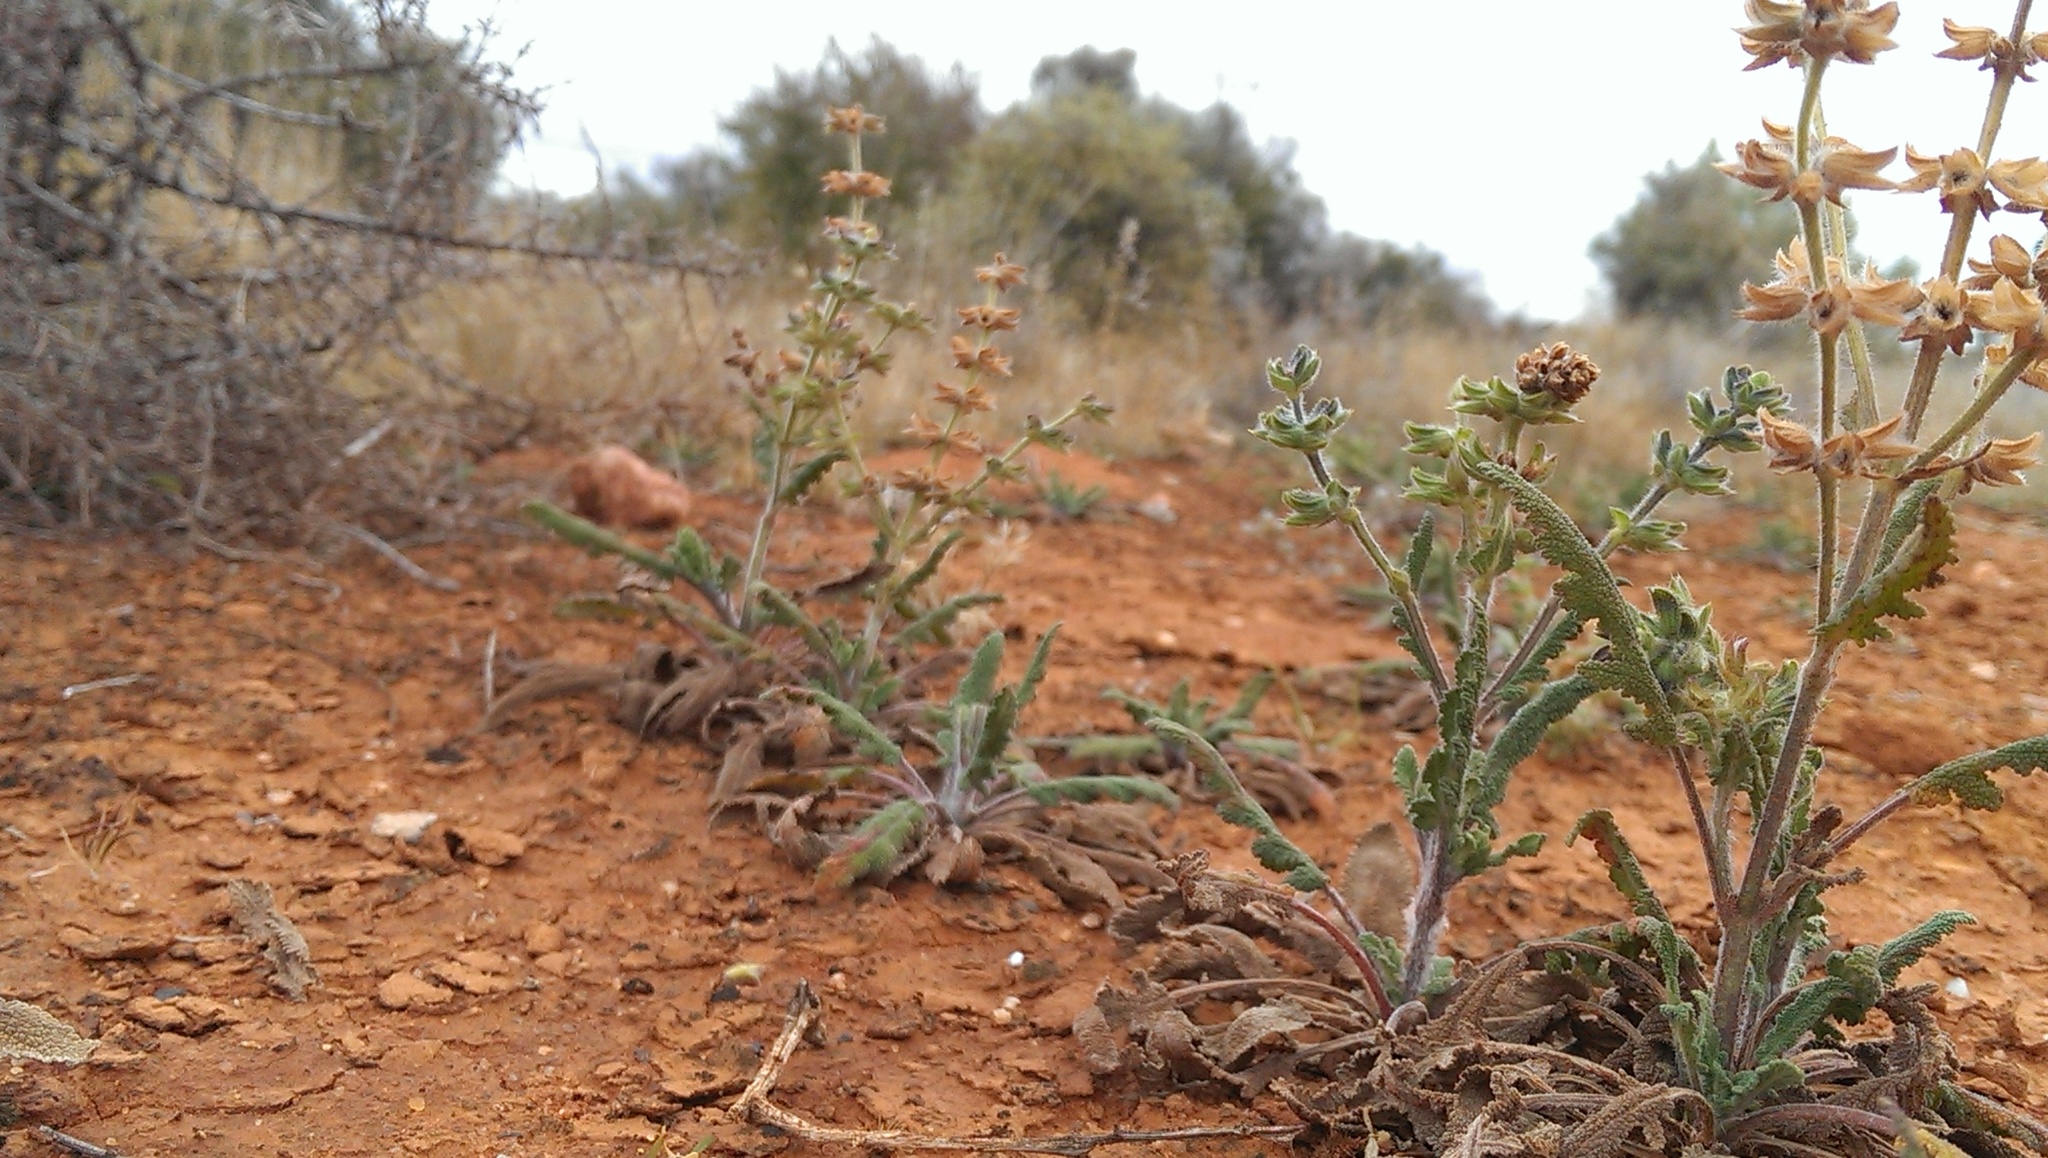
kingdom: Plantae
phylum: Tracheophyta
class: Magnoliopsida
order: Lamiales
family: Lamiaceae
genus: Salvia
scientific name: Salvia verbenaca
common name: Wild clary
